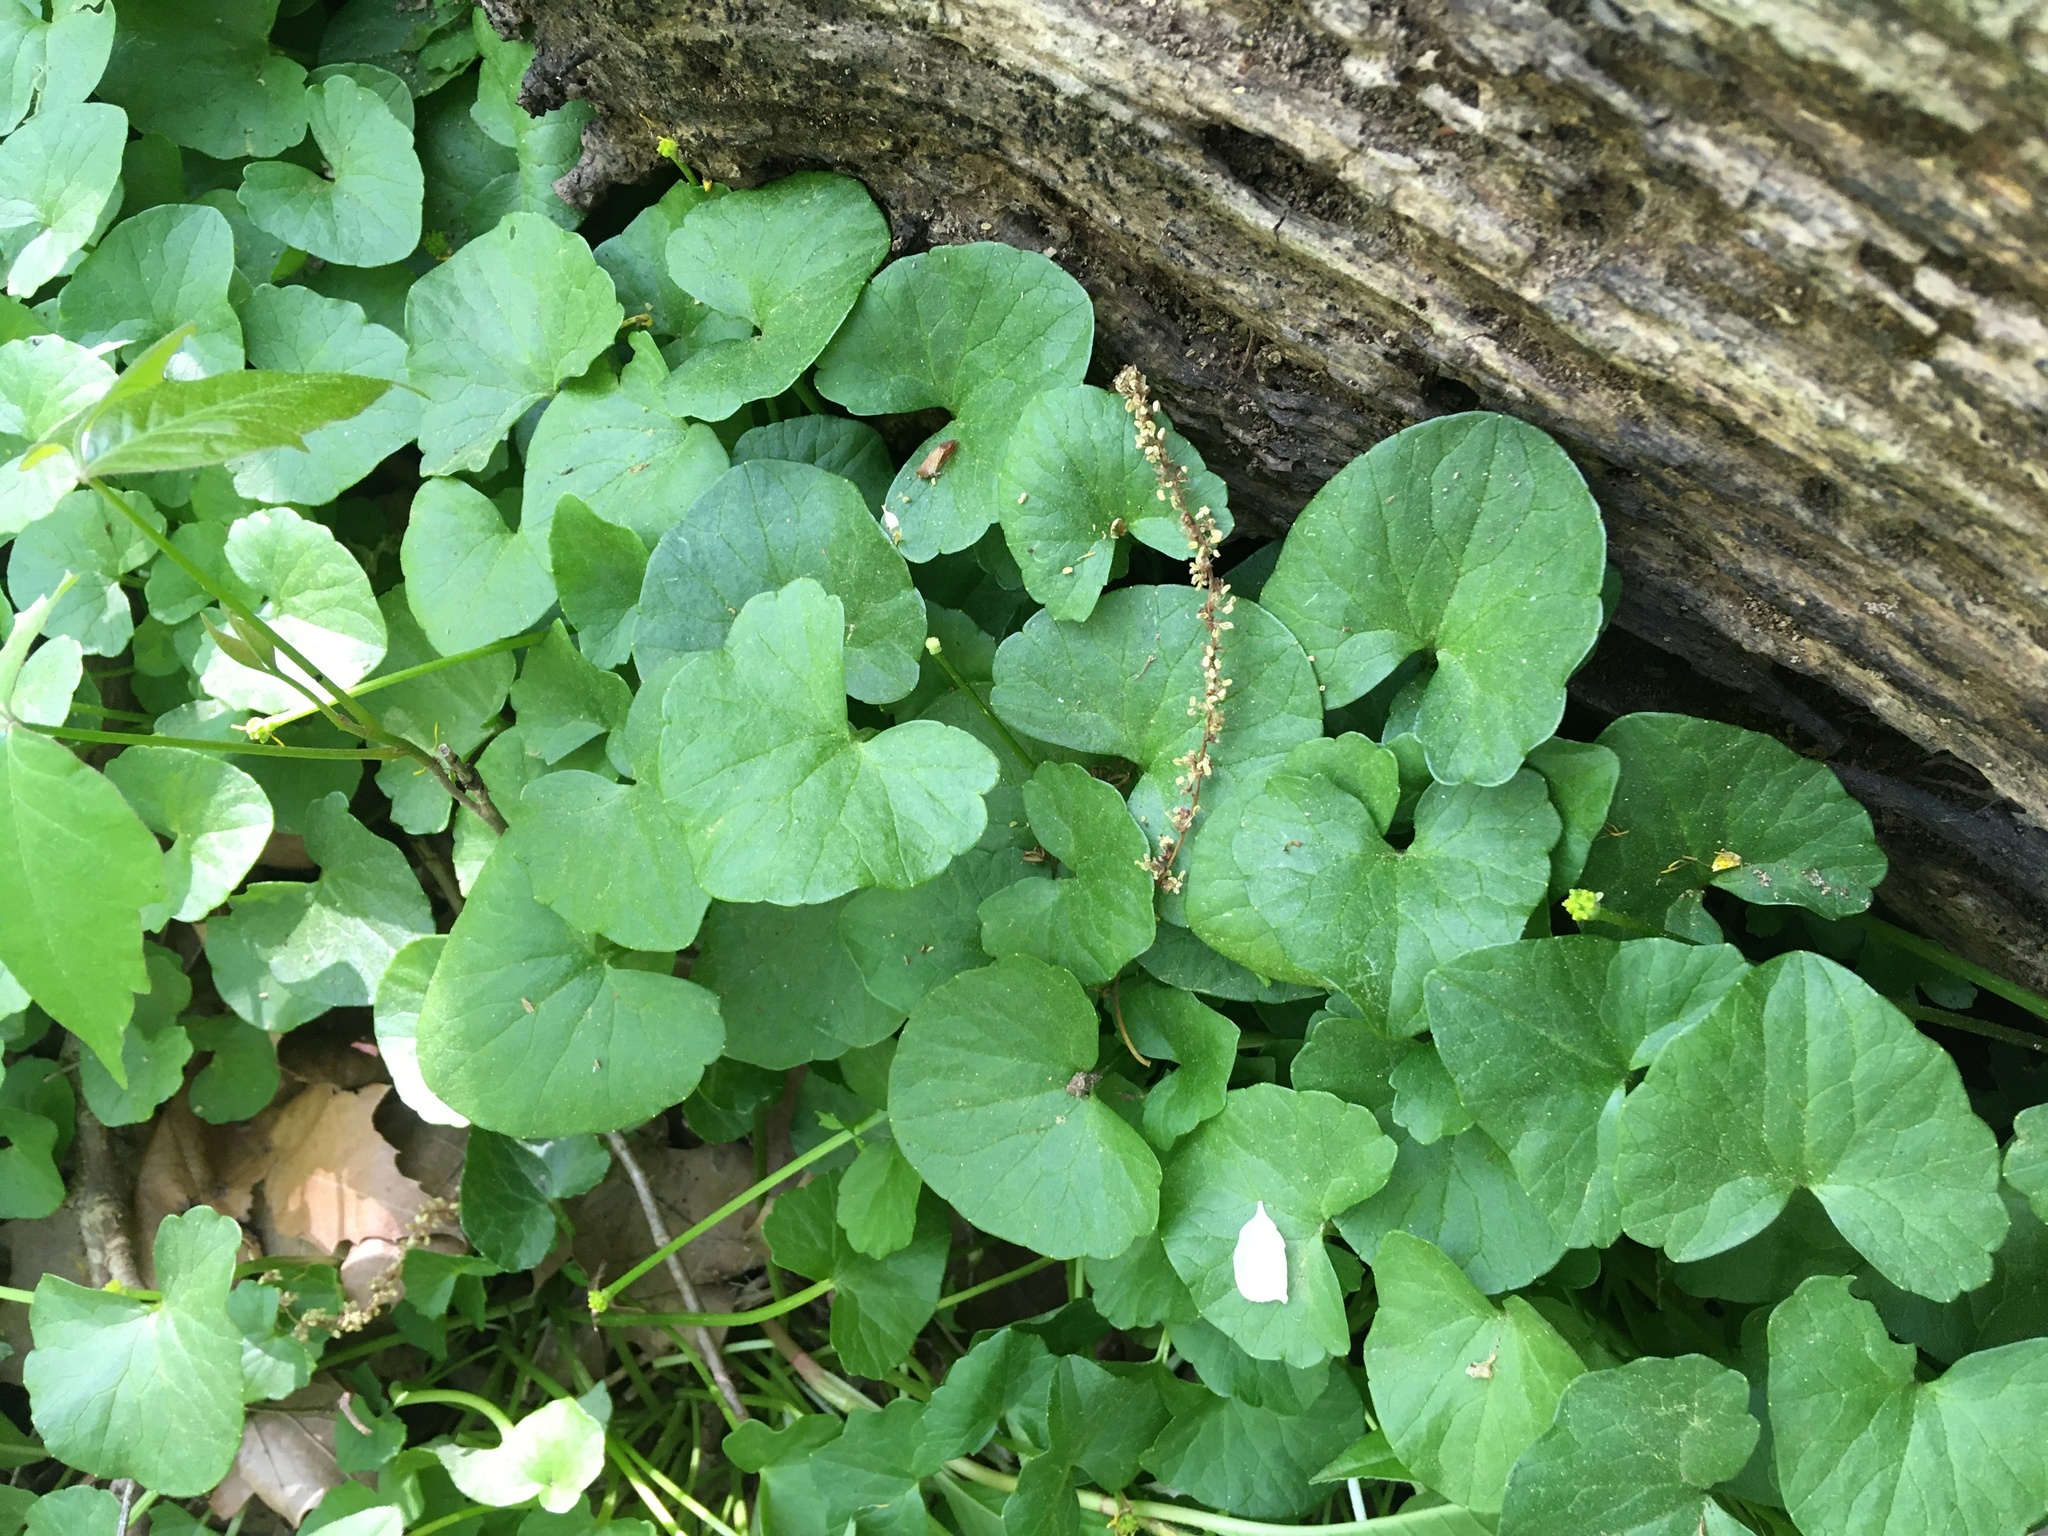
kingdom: Plantae
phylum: Tracheophyta
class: Magnoliopsida
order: Ranunculales
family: Ranunculaceae
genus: Ficaria
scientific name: Ficaria verna
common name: Lesser celandine
